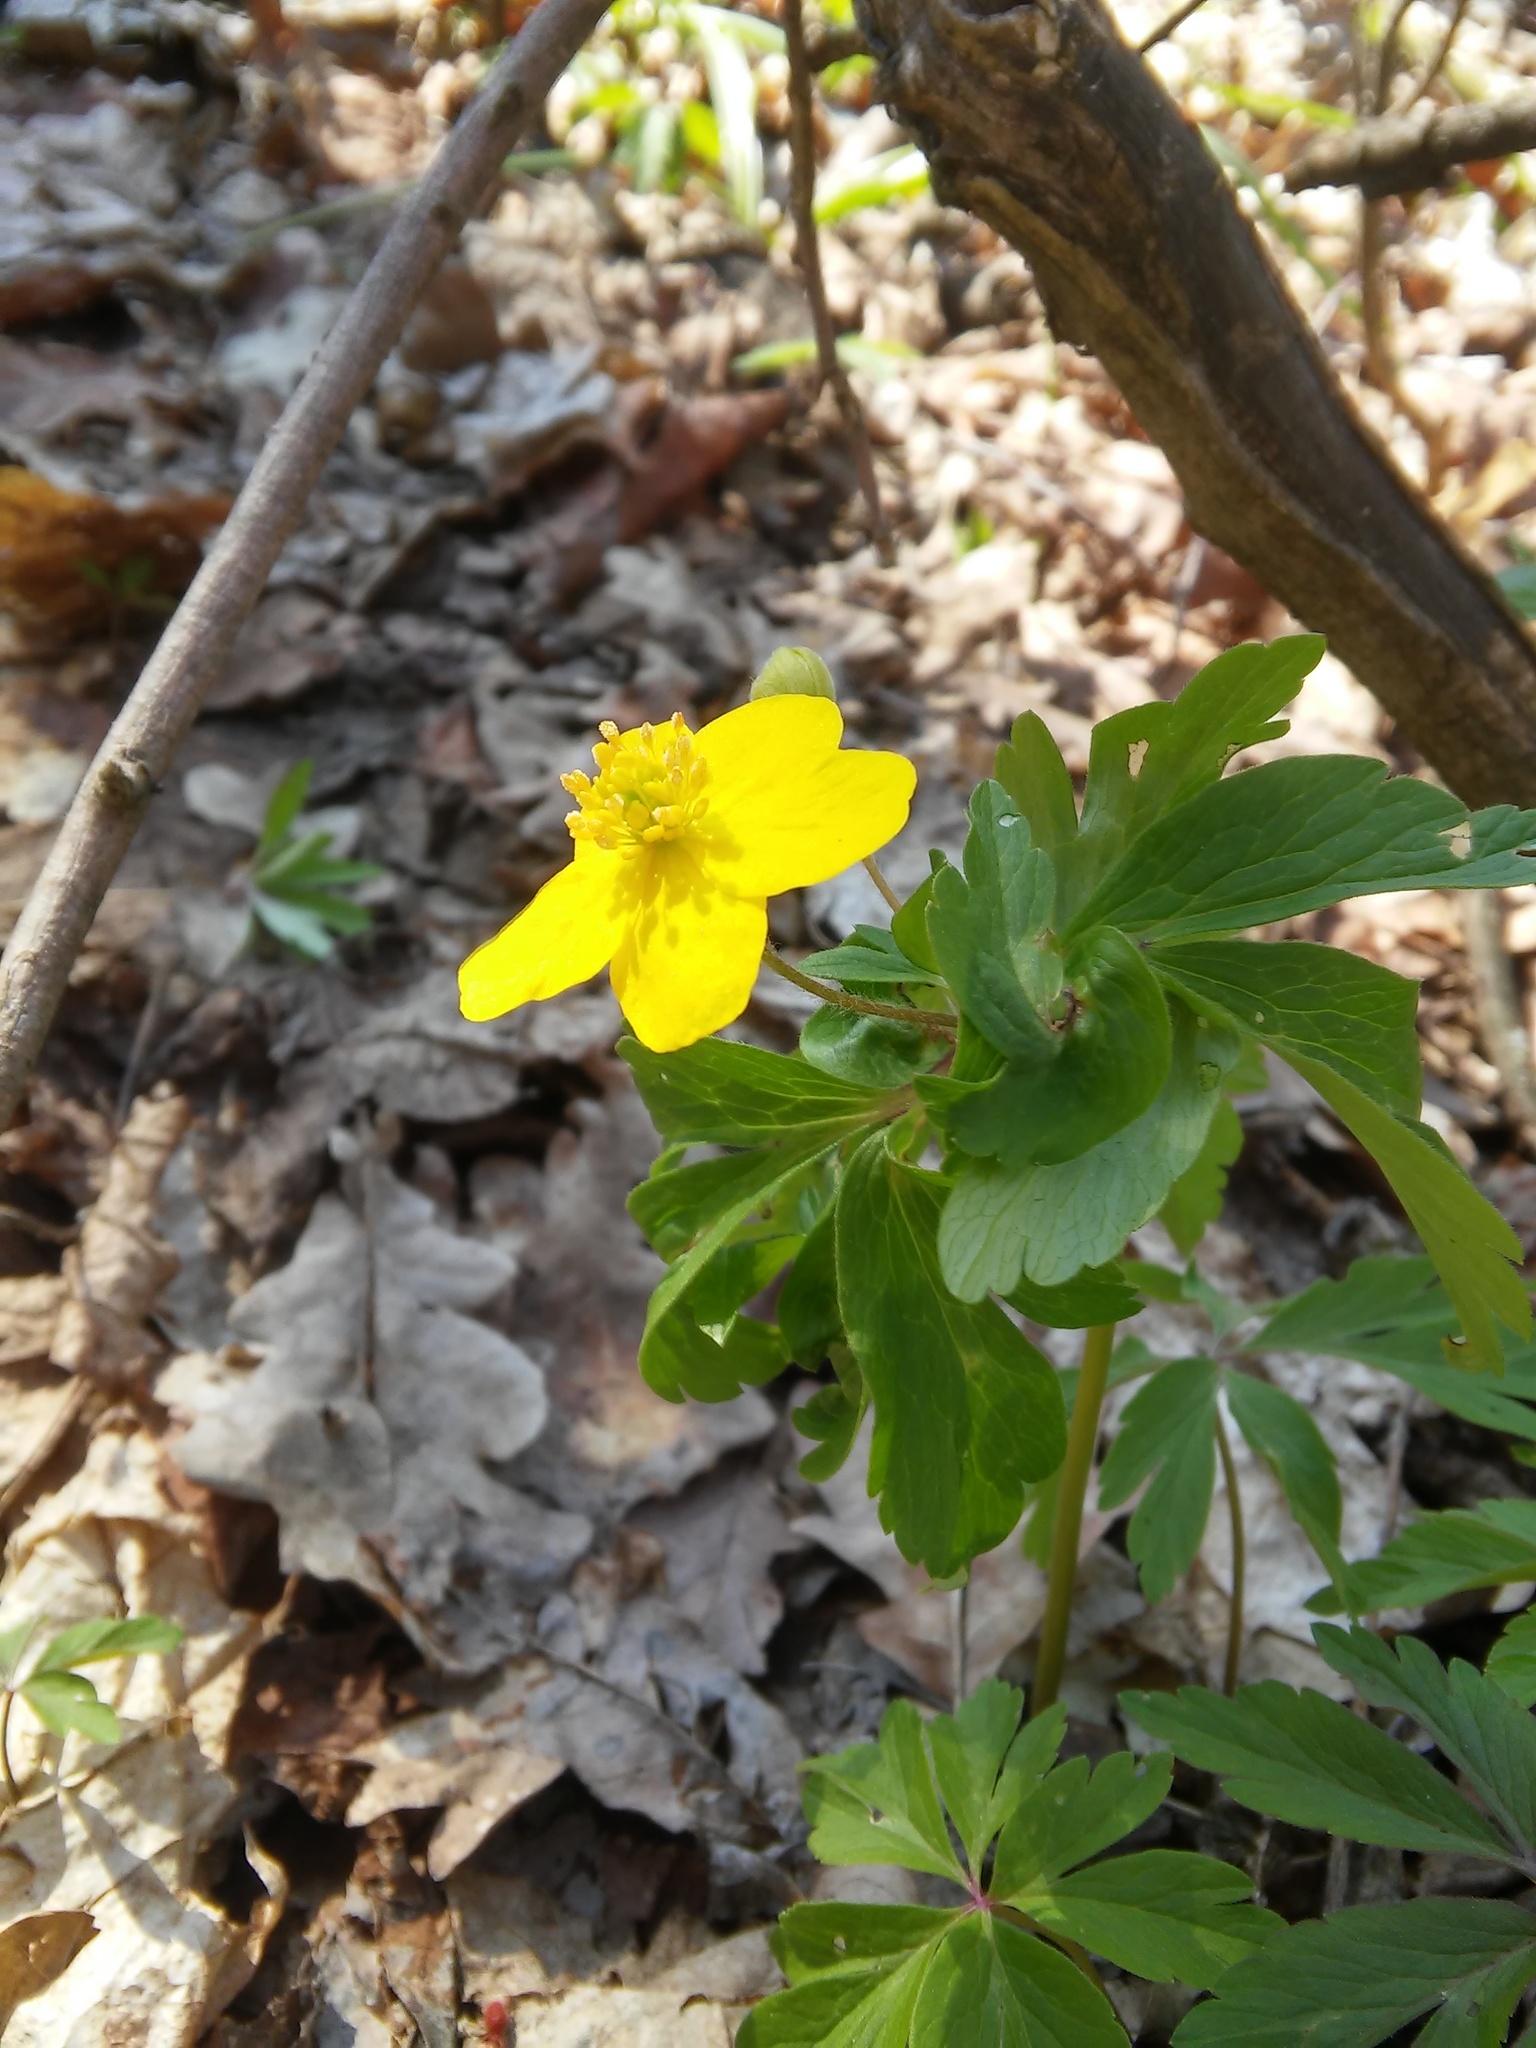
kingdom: Plantae
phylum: Tracheophyta
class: Magnoliopsida
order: Ranunculales
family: Ranunculaceae
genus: Anemone
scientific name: Anemone ranunculoides
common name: Yellow anemone
